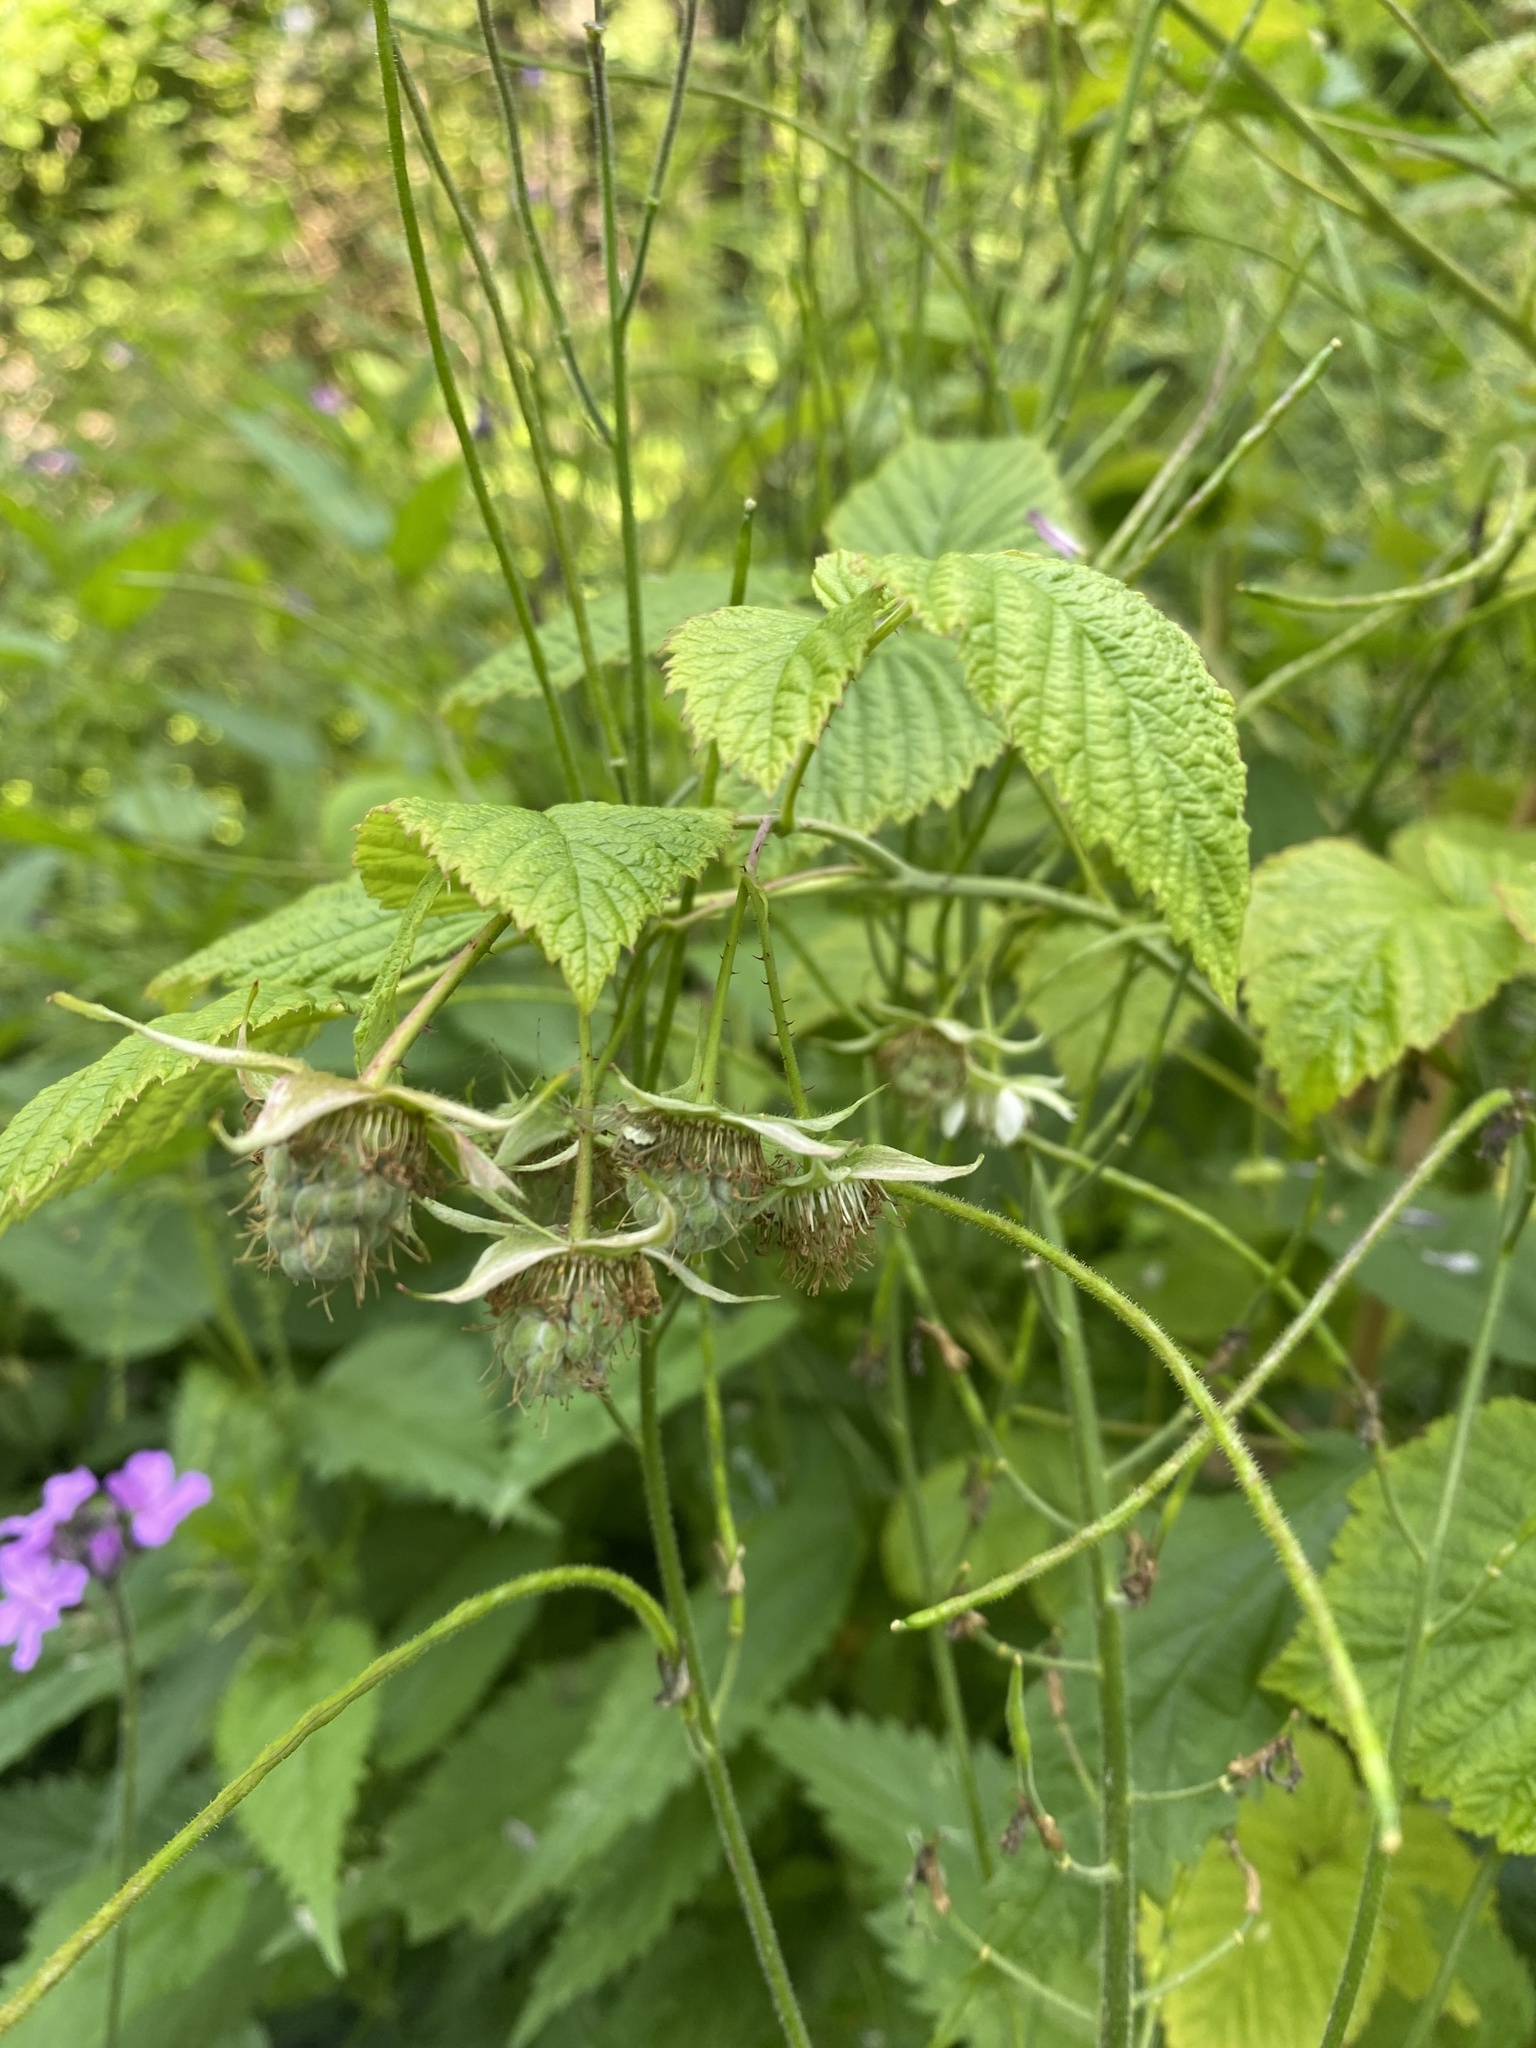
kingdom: Plantae
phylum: Tracheophyta
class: Magnoliopsida
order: Rosales
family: Rosaceae
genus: Rubus
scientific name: Rubus sachalinensis
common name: Red raspberry
